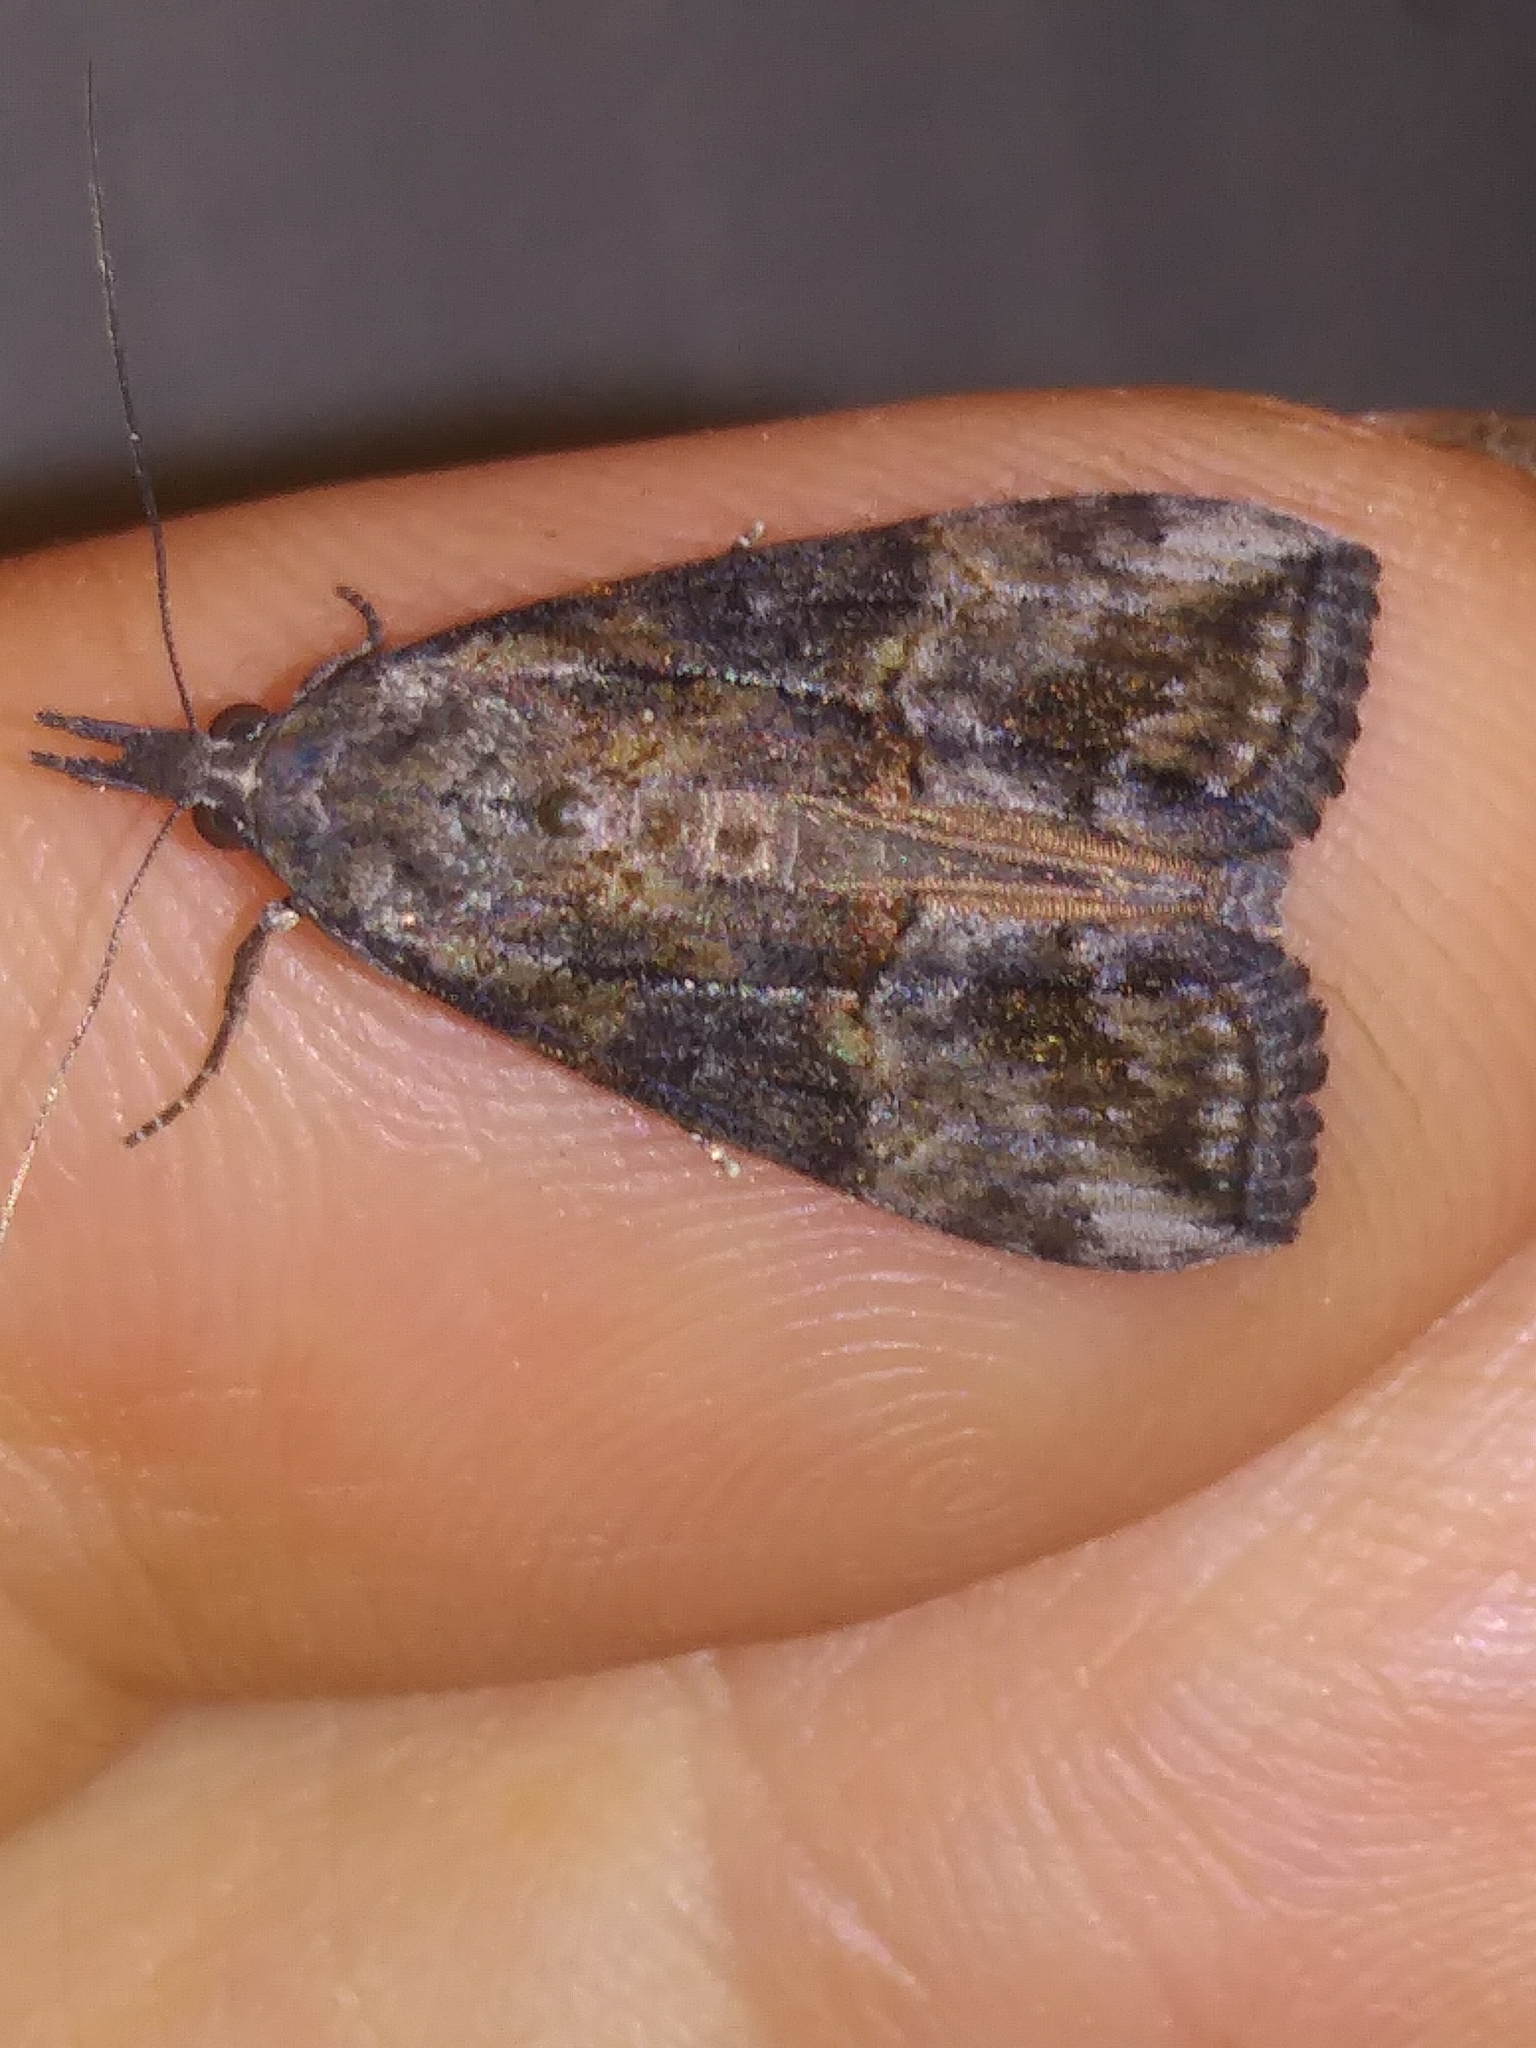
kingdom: Animalia
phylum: Arthropoda
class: Insecta
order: Lepidoptera
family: Erebidae
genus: Hypena
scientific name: Hypena scabra
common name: Green cloverworm
